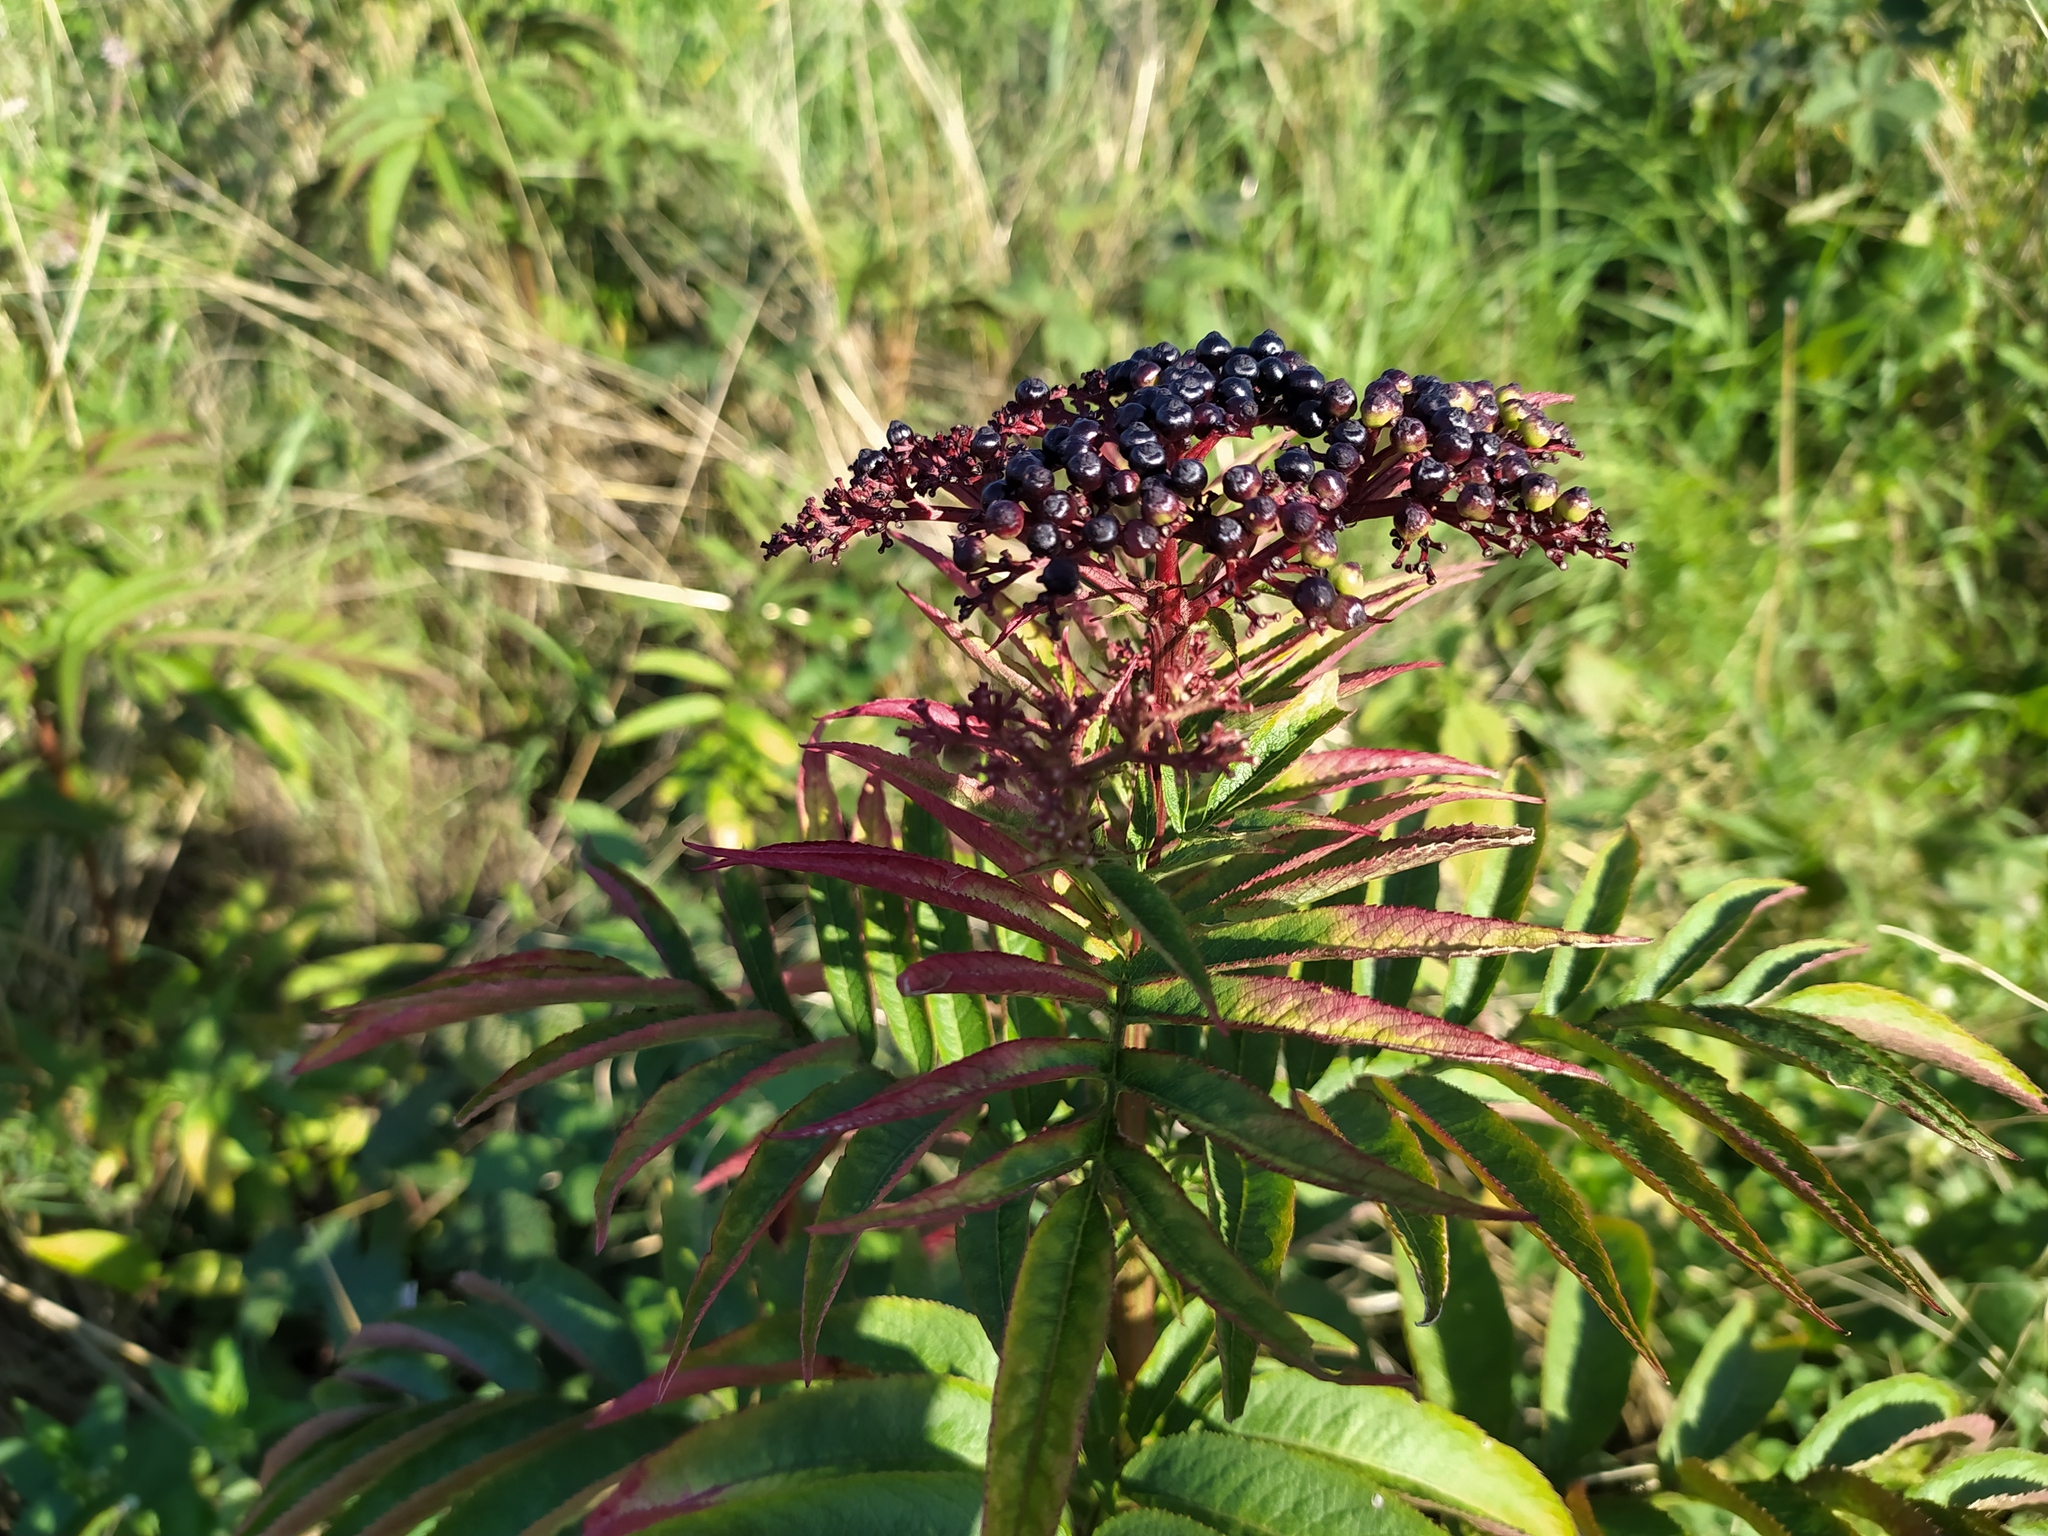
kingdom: Plantae
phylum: Tracheophyta
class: Magnoliopsida
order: Dipsacales
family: Viburnaceae
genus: Sambucus
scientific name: Sambucus ebulus
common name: Dwarf elder
